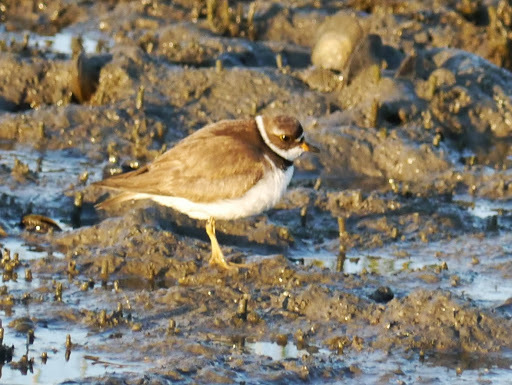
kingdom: Animalia
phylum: Chordata
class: Aves
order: Charadriiformes
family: Charadriidae
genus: Charadrius
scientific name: Charadrius semipalmatus
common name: Semipalmated plover
